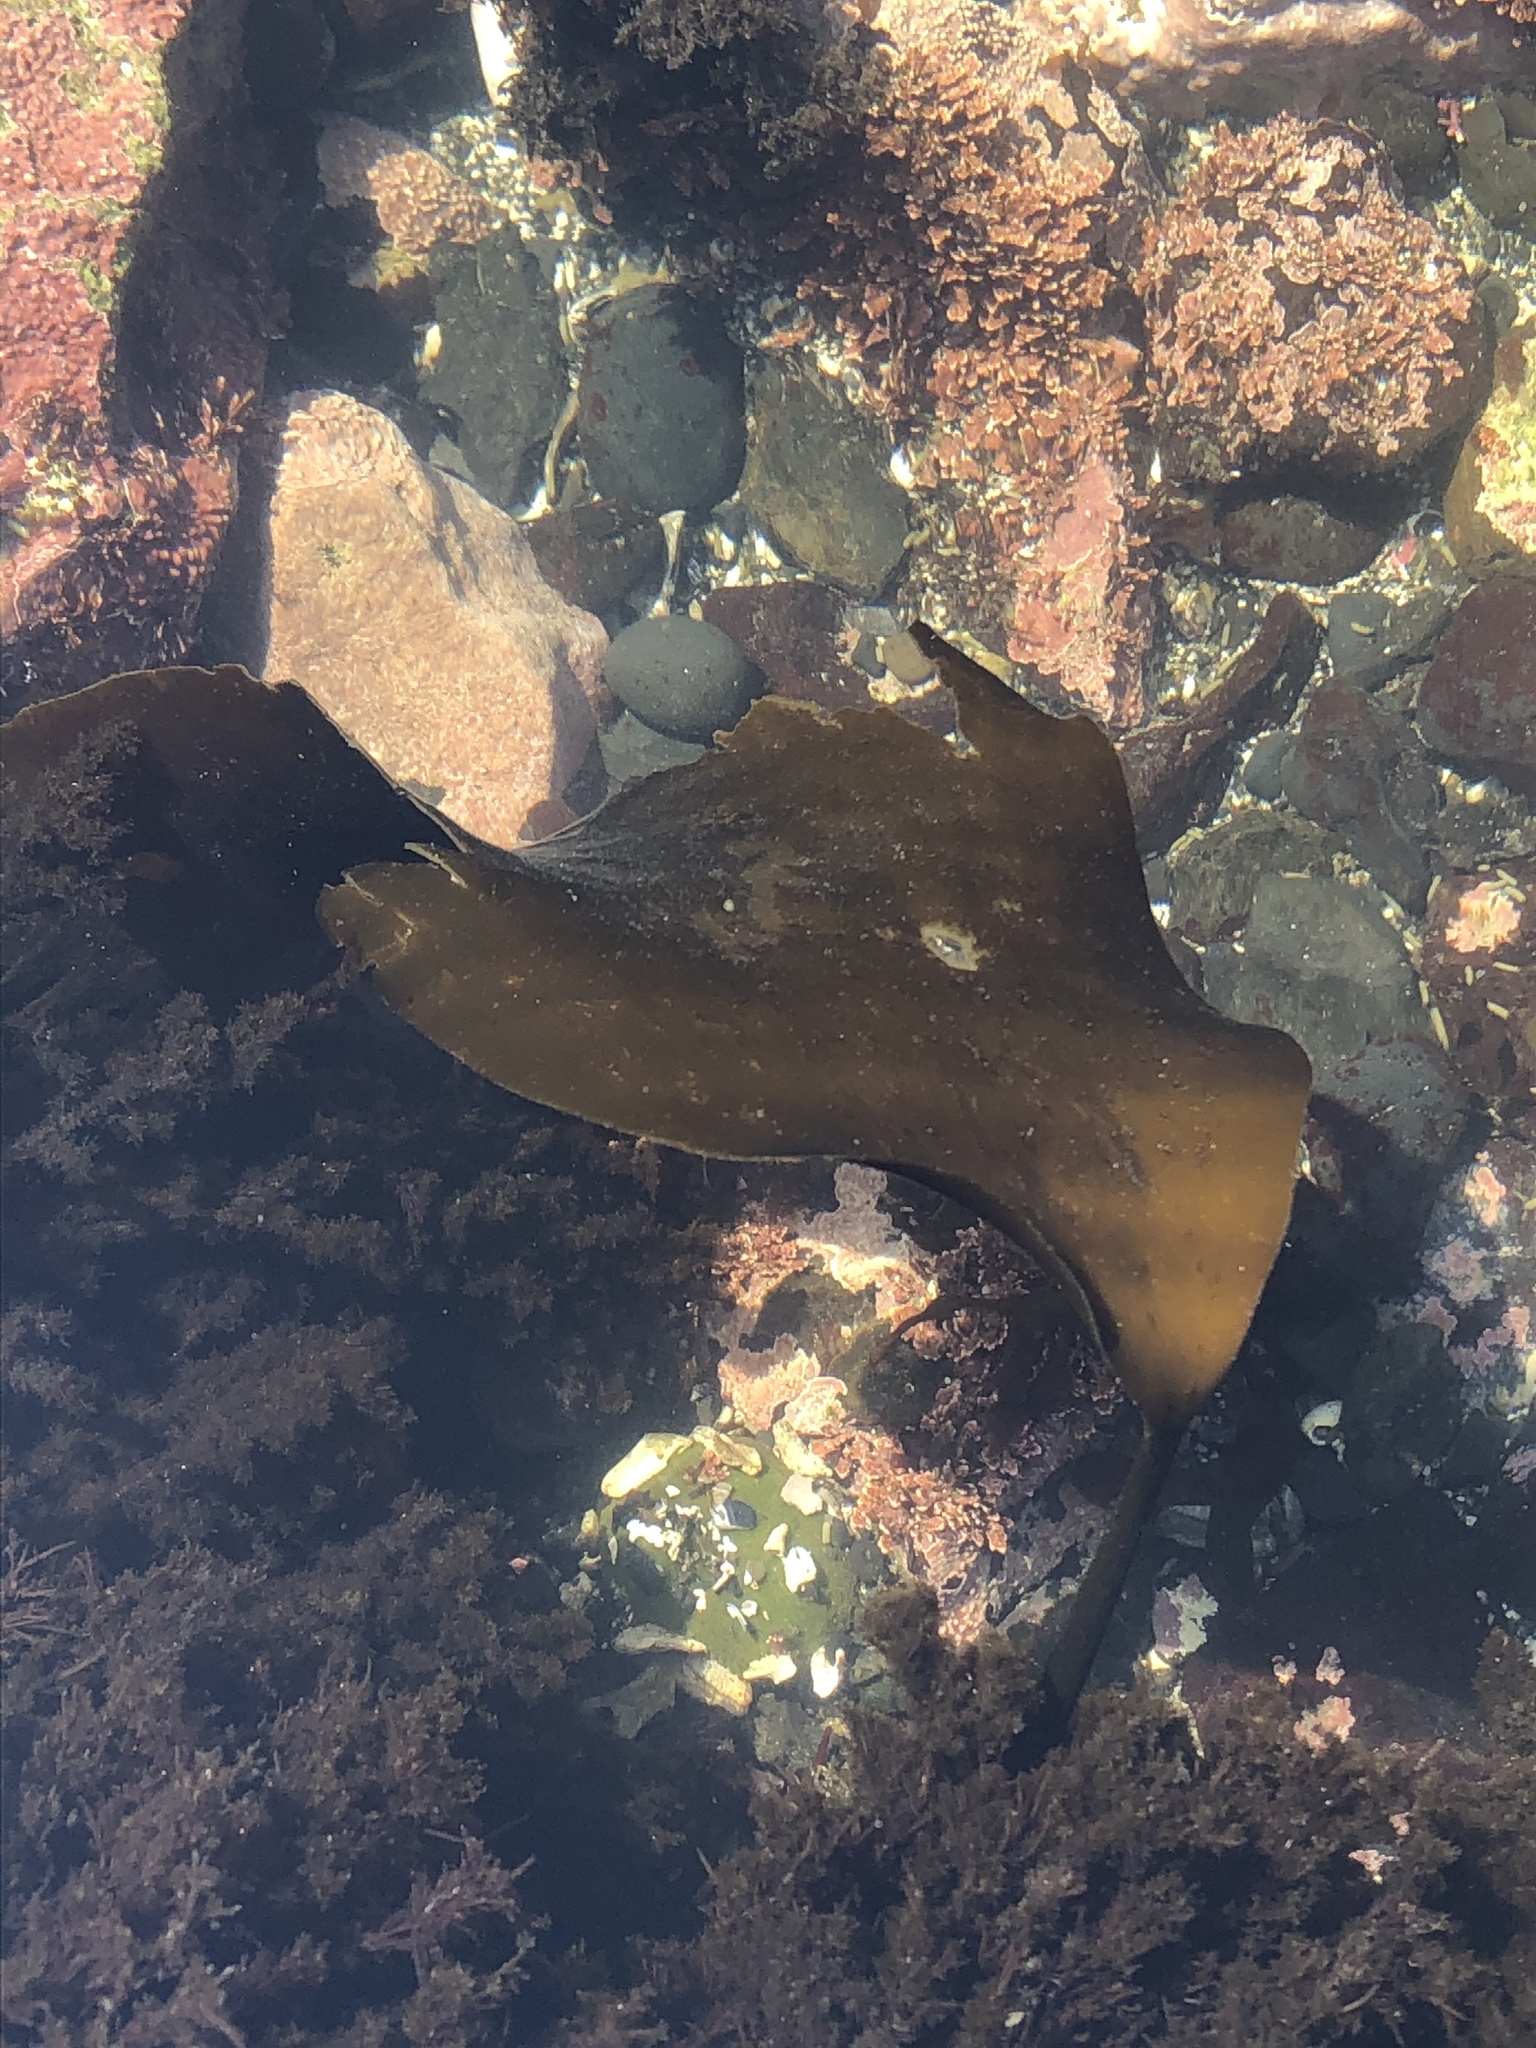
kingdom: Chromista
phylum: Ochrophyta
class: Phaeophyceae
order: Laminariales
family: Laminariaceae
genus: Laminaria
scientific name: Laminaria setchellii
